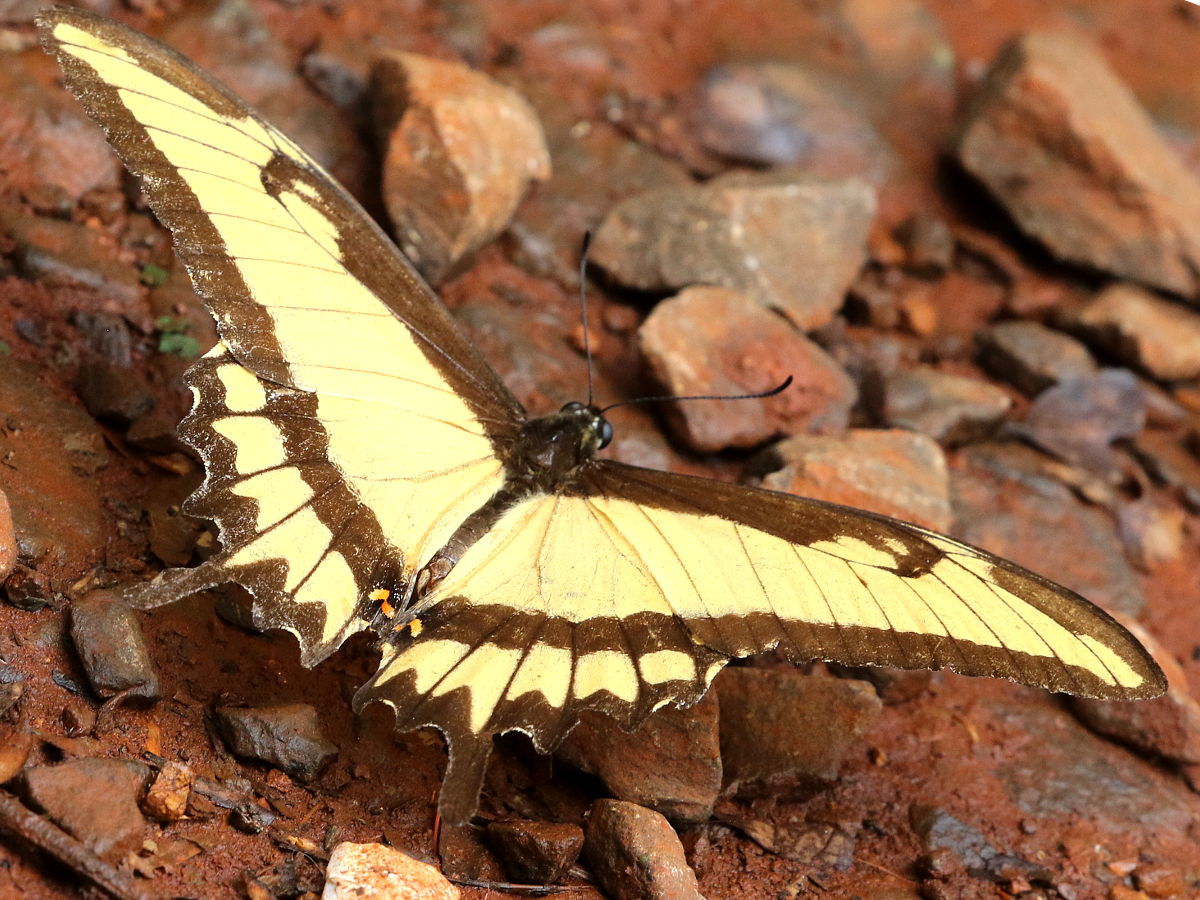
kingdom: Animalia
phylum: Arthropoda
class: Insecta
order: Lepidoptera
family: Papilionidae
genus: Papilio
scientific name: Papilio astyalus
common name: Astyalus swallowtail
